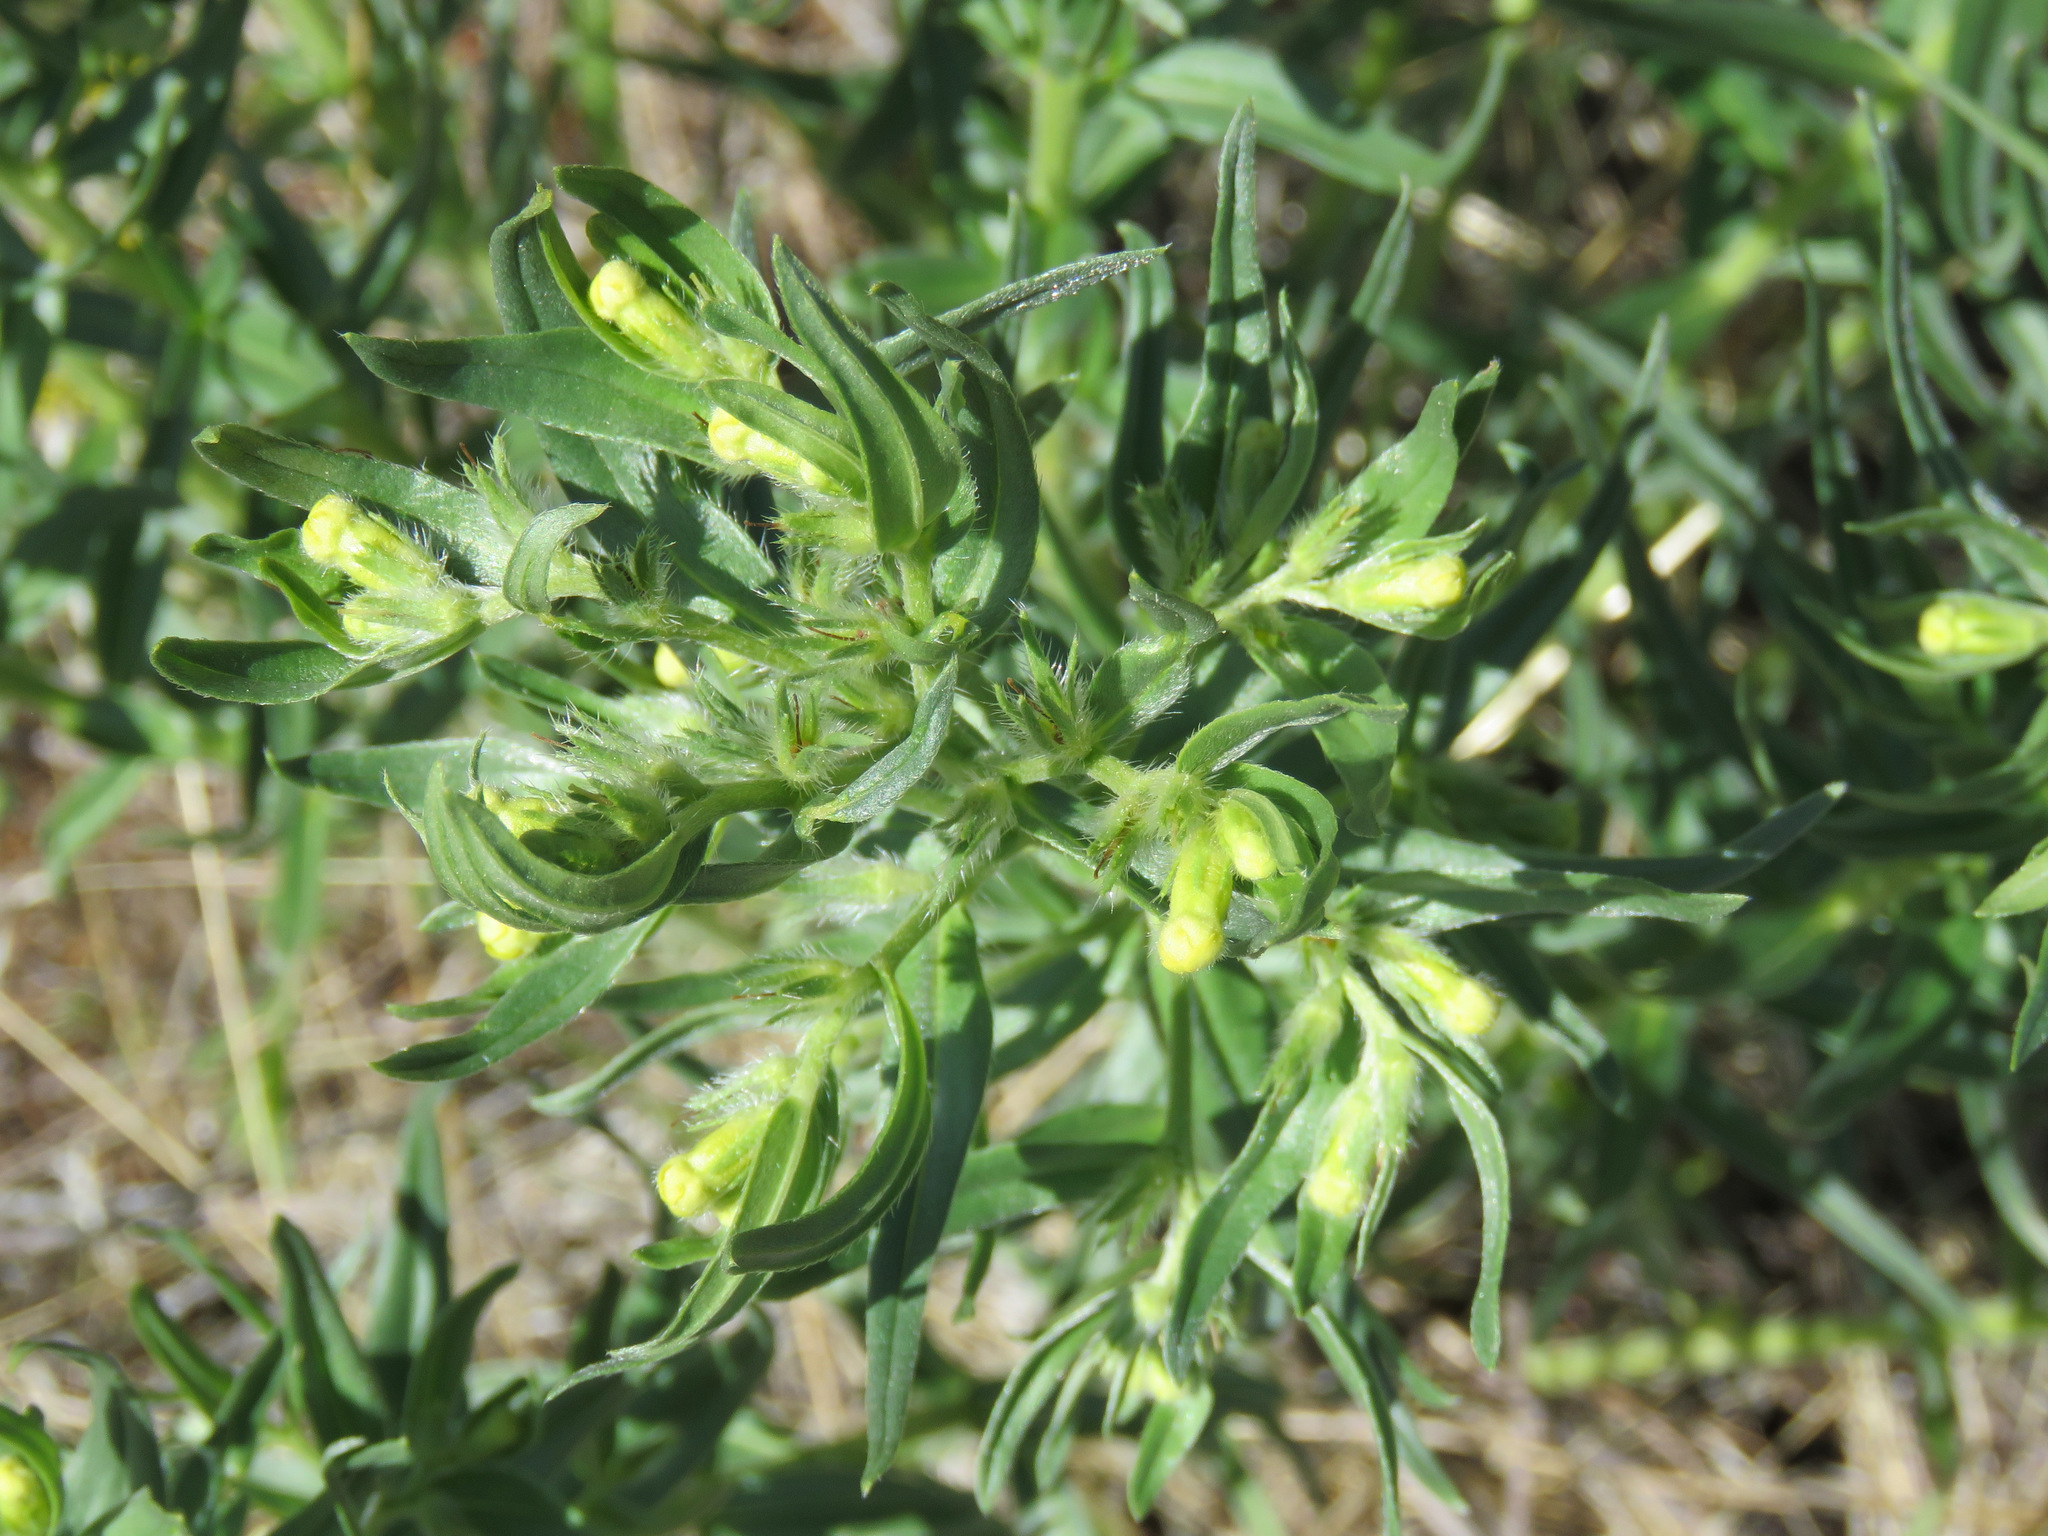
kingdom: Plantae
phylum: Tracheophyta
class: Magnoliopsida
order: Boraginales
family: Boraginaceae
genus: Lithospermum
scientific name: Lithospermum ruderale
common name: Western gromwell
